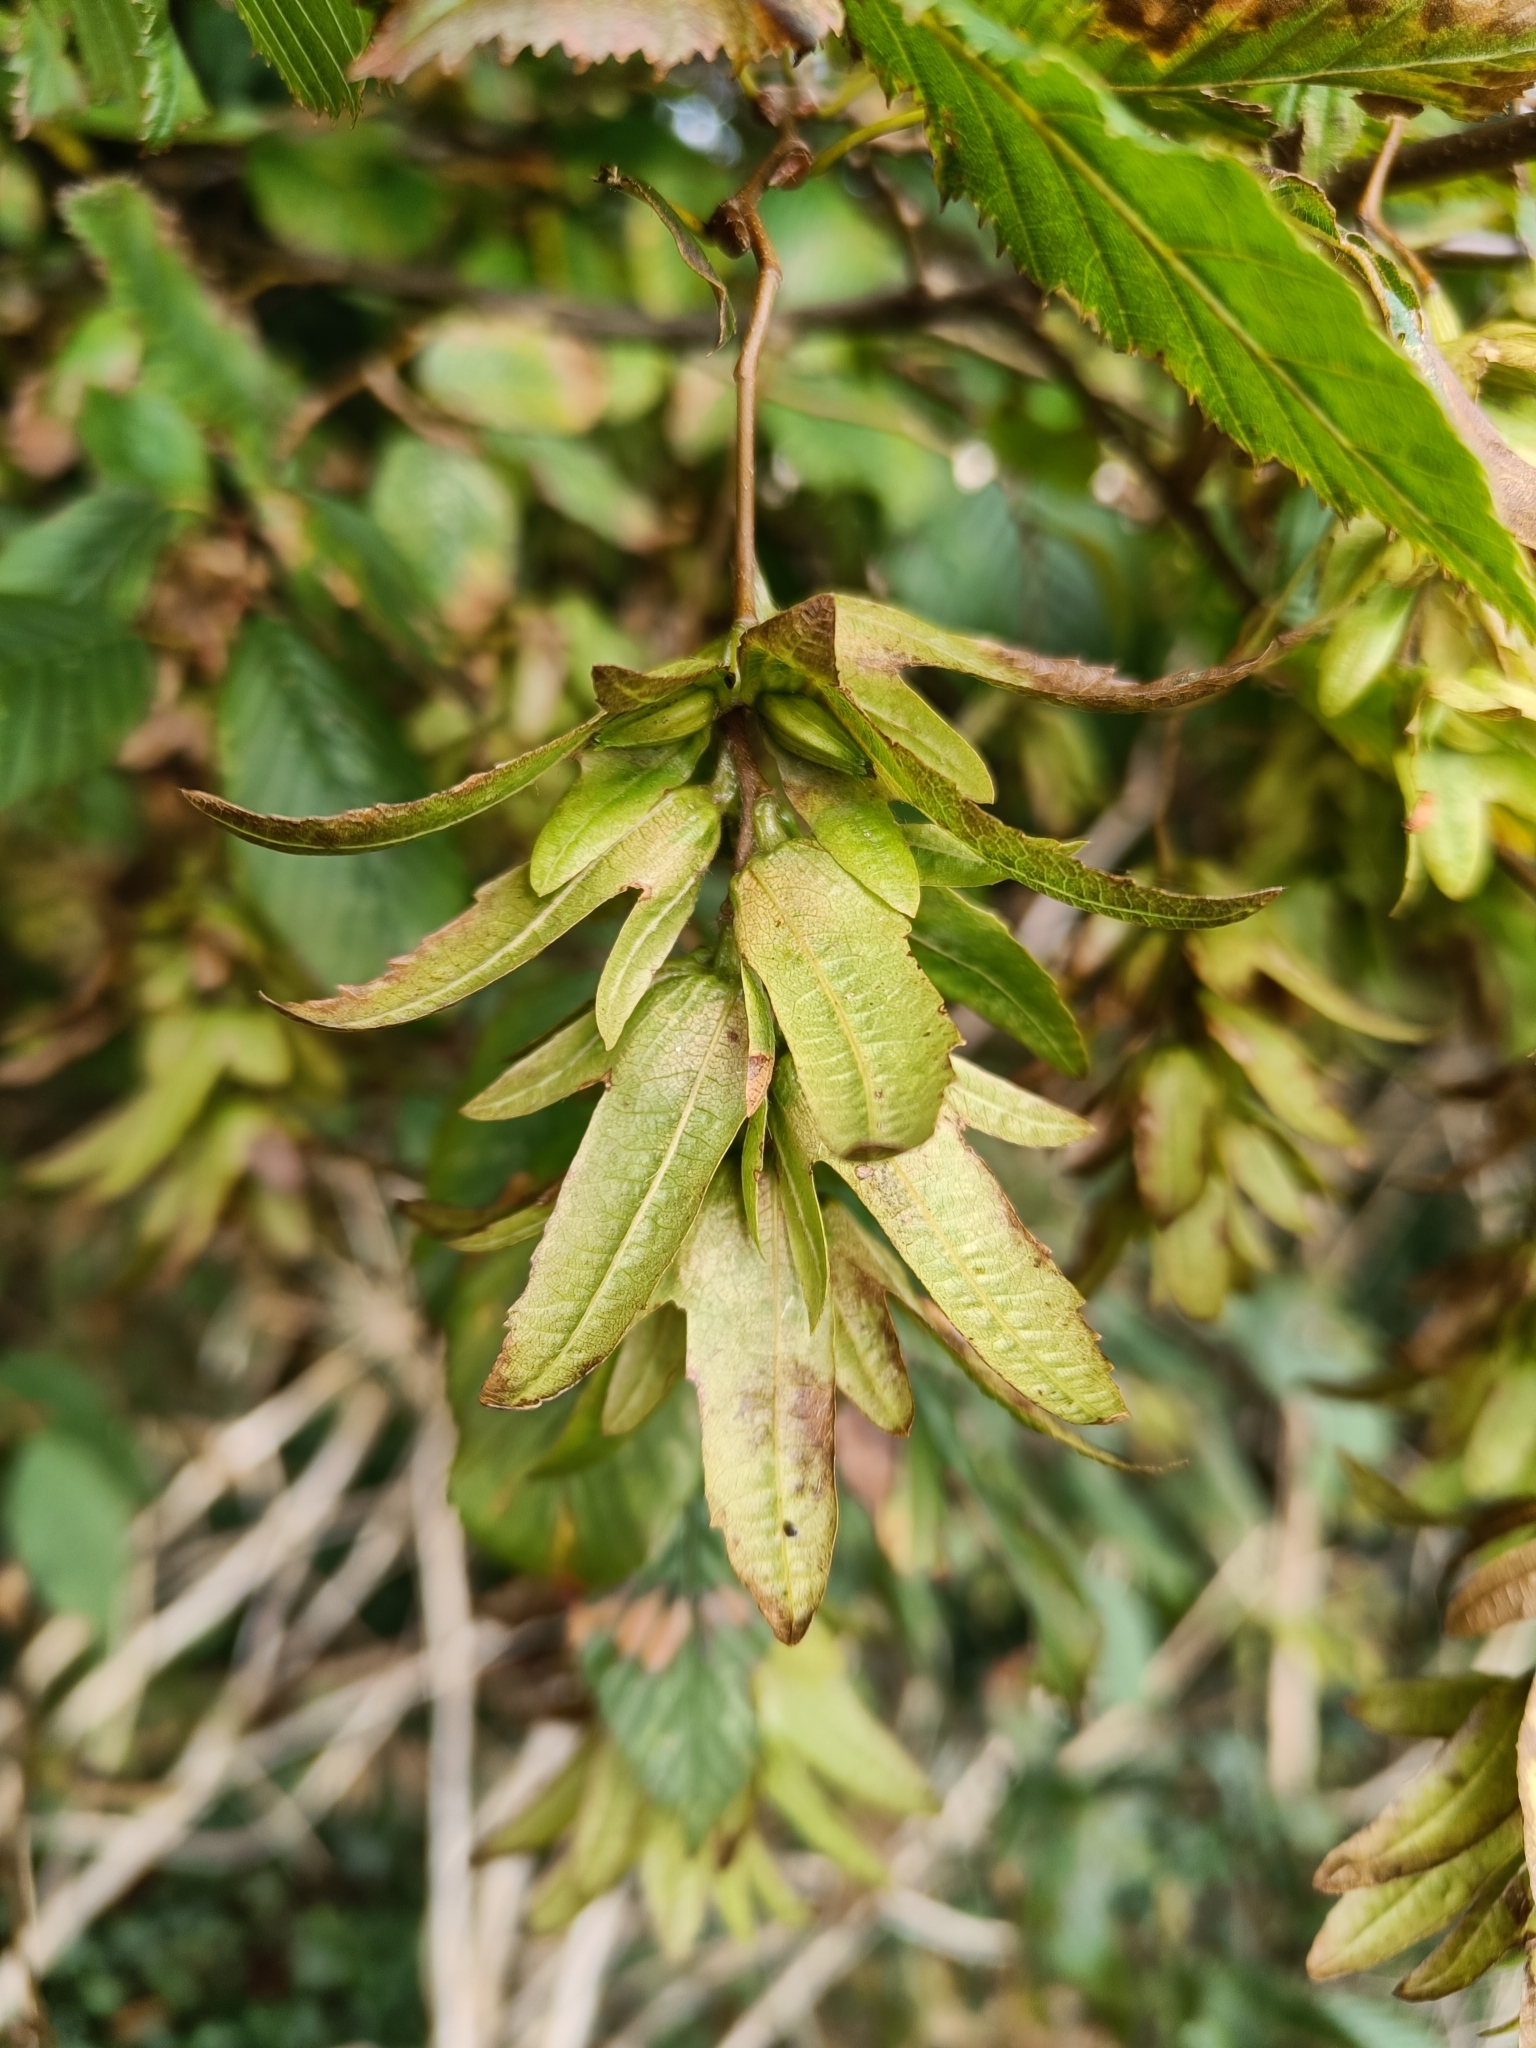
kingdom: Plantae
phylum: Tracheophyta
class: Magnoliopsida
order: Fagales
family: Betulaceae
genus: Carpinus
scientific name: Carpinus betulus
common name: Hornbeam
